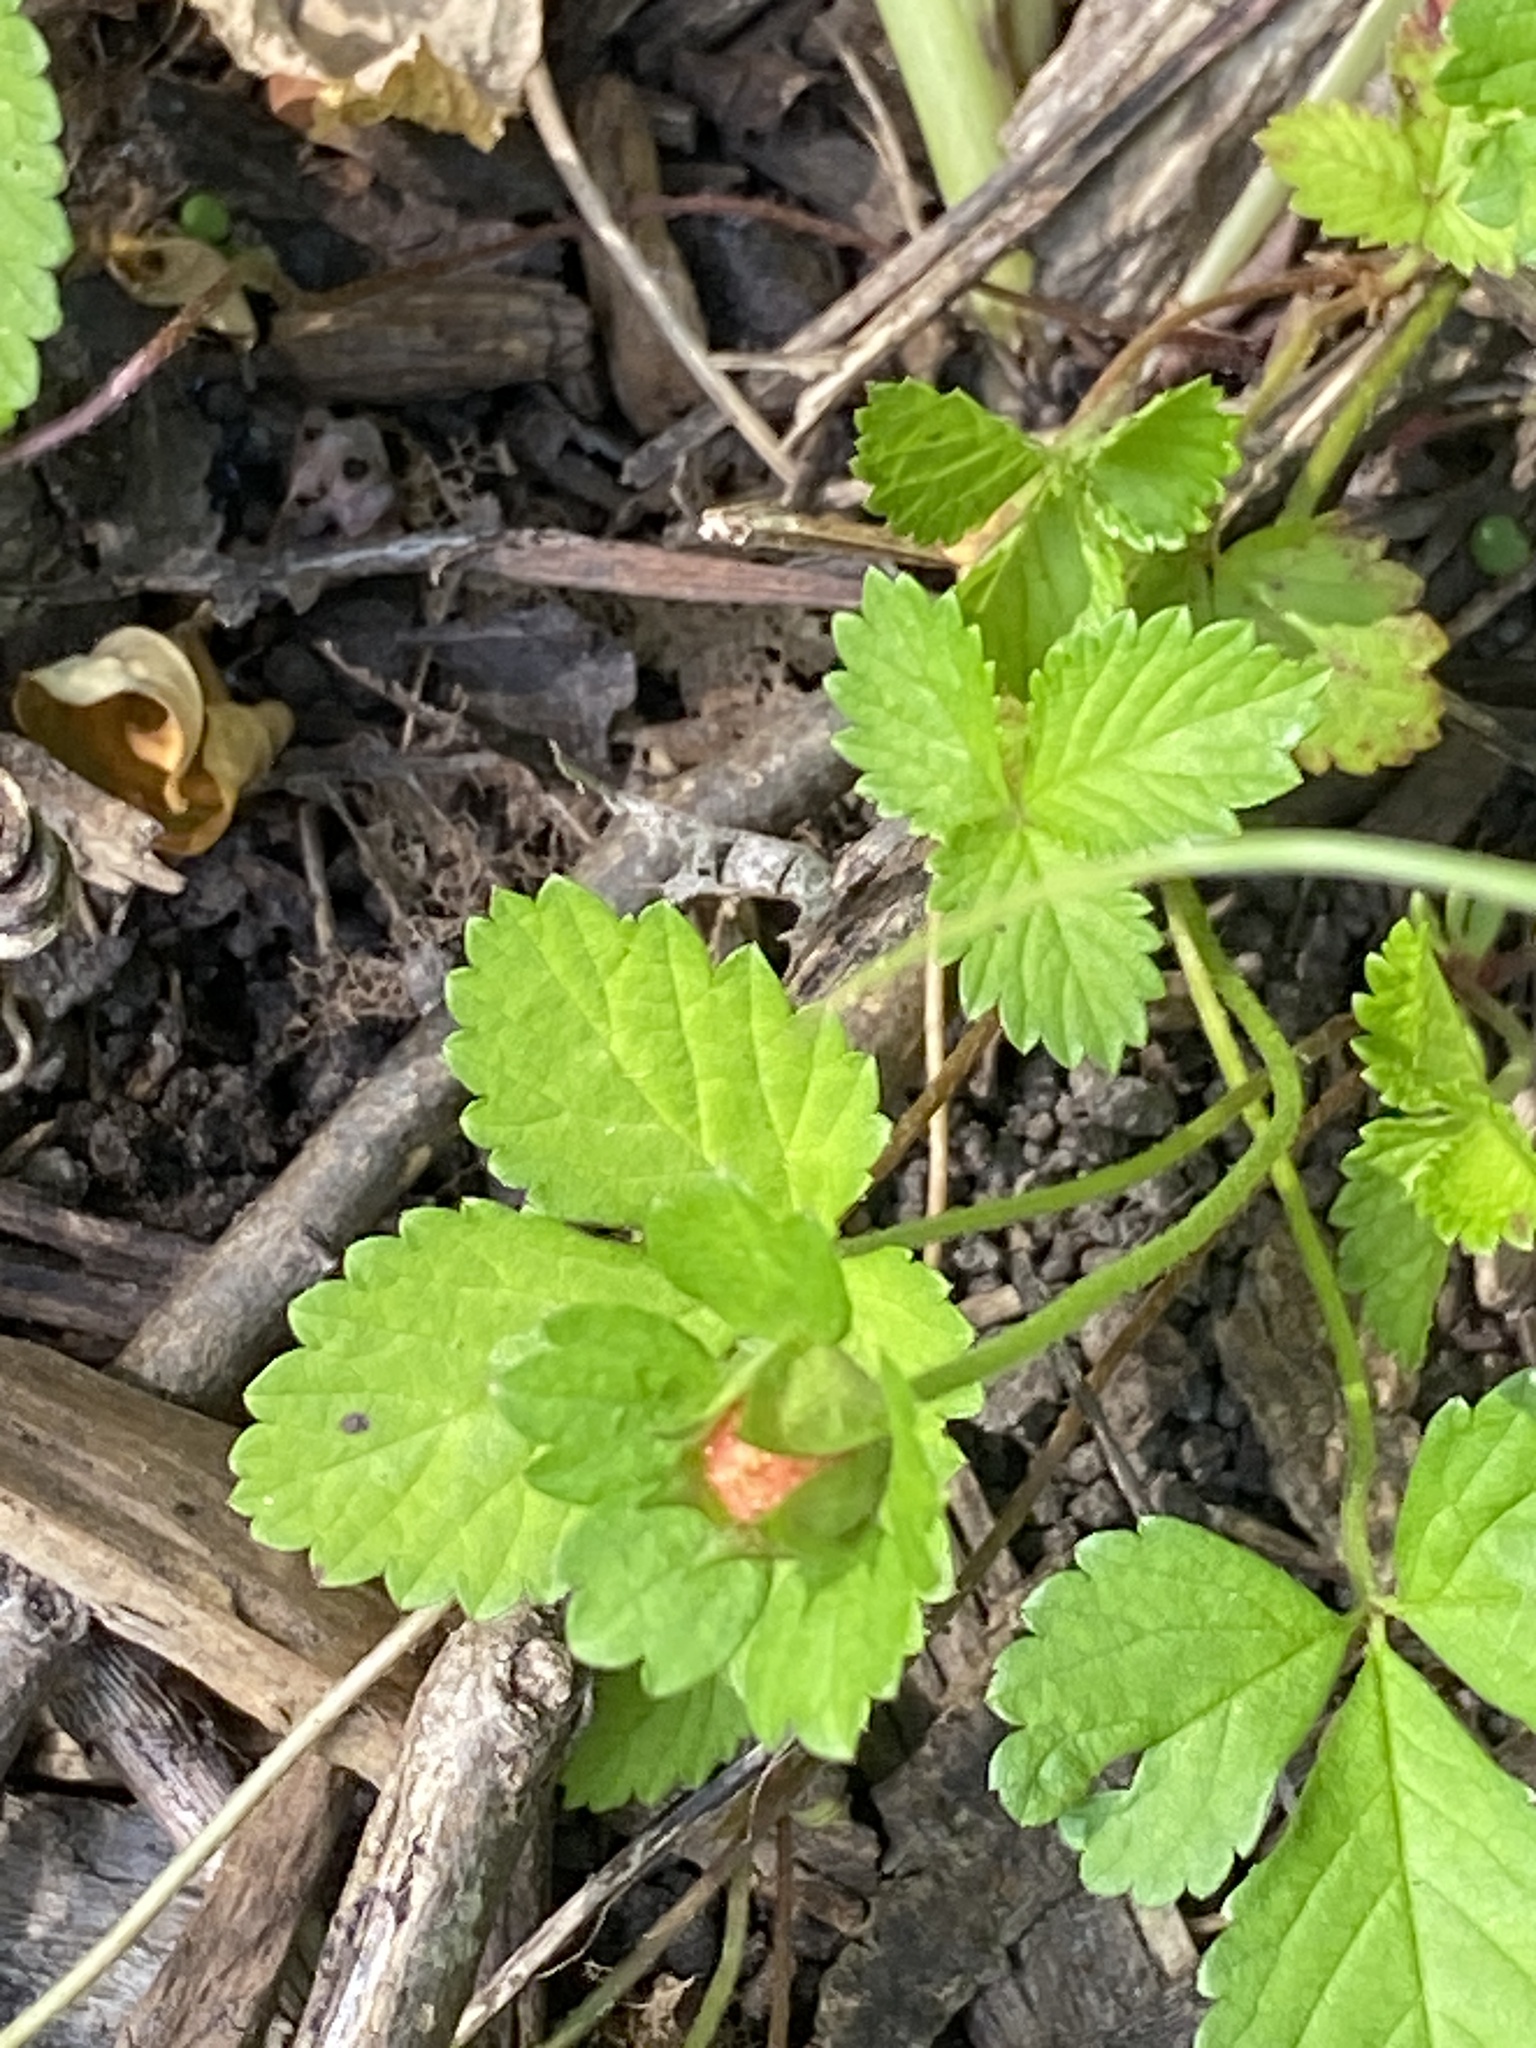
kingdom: Plantae
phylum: Tracheophyta
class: Magnoliopsida
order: Rosales
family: Rosaceae
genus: Potentilla
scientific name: Potentilla indica
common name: Yellow-flowered strawberry
